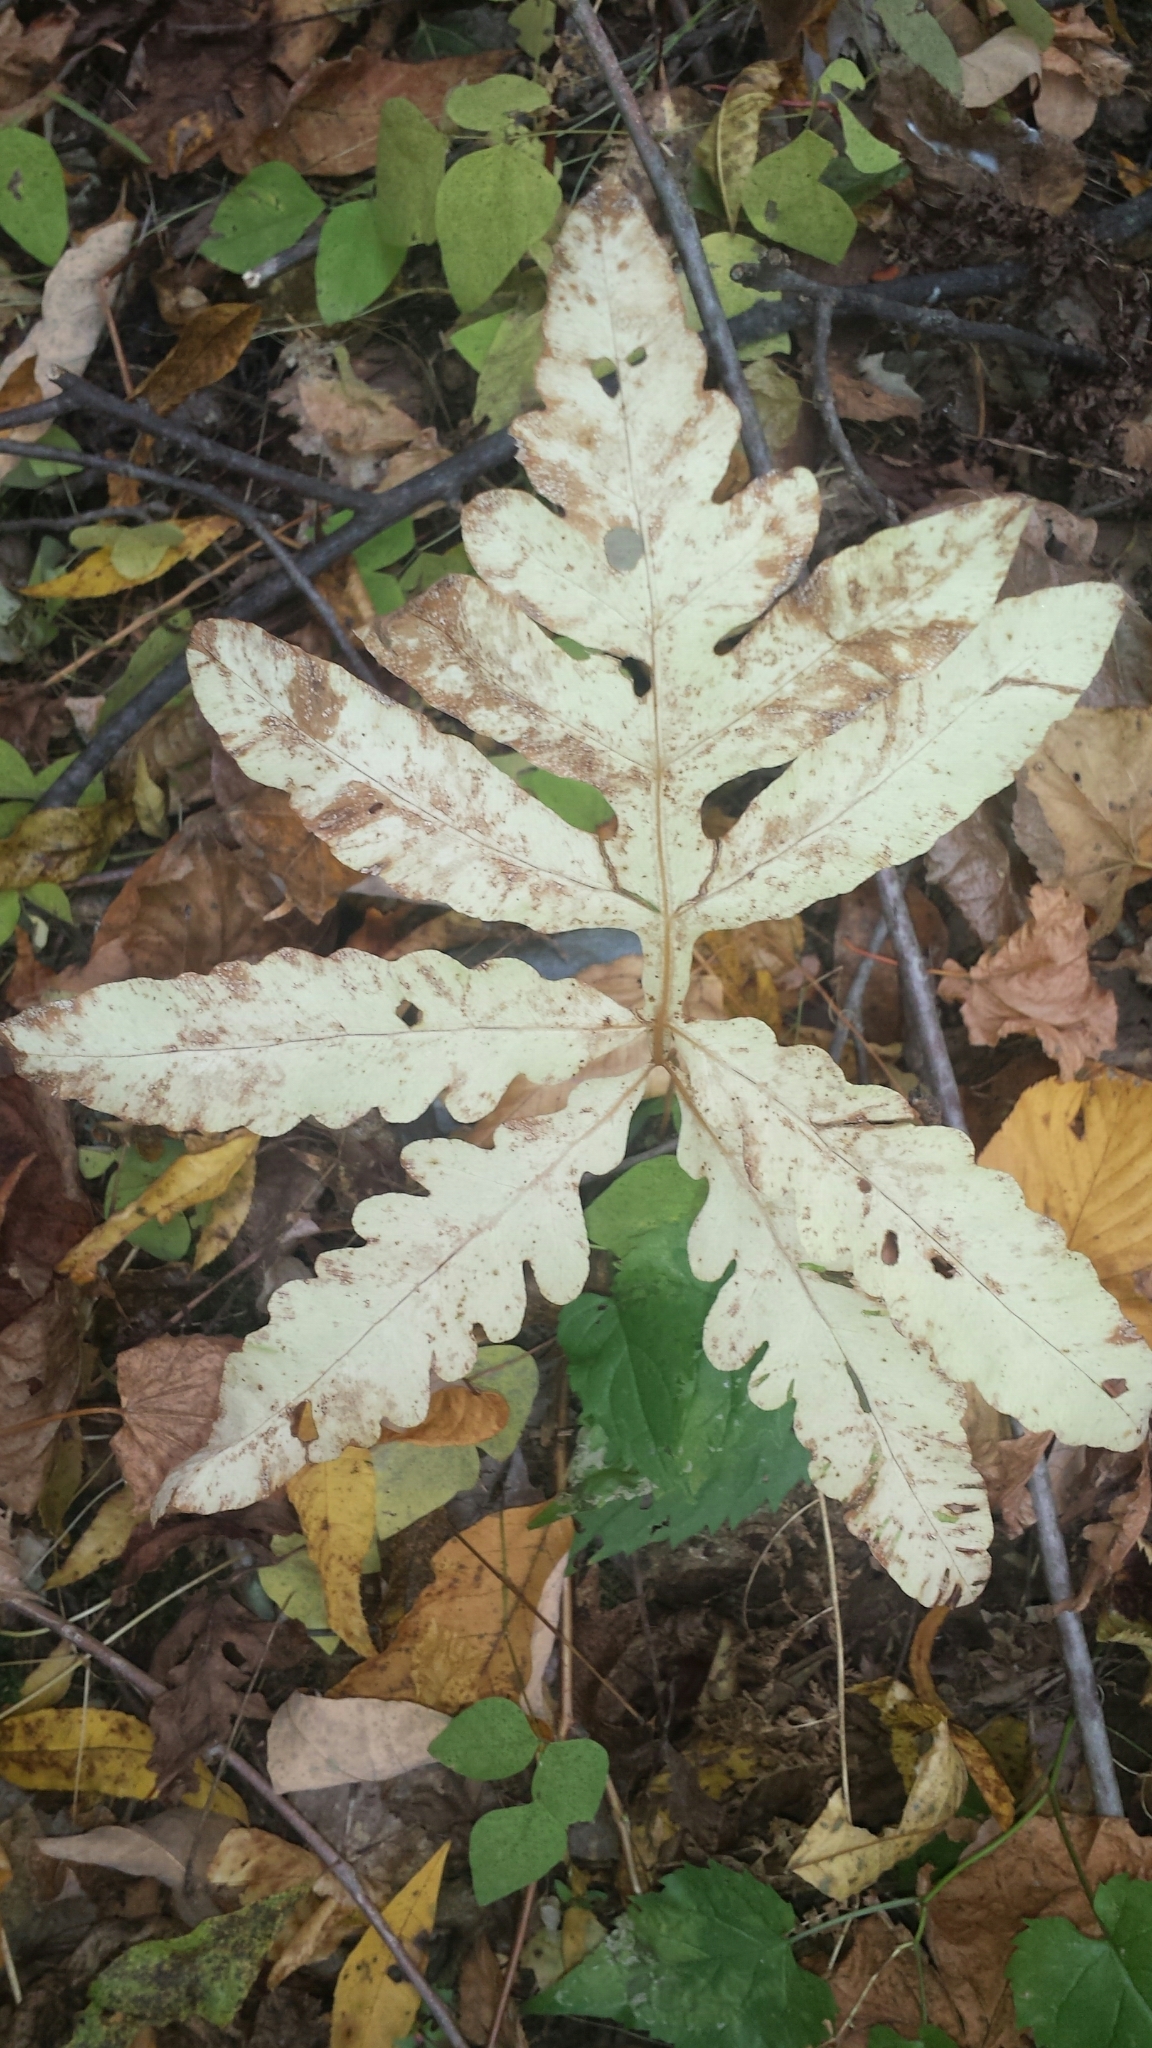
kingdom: Plantae
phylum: Tracheophyta
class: Polypodiopsida
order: Polypodiales
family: Onocleaceae
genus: Onoclea
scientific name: Onoclea sensibilis
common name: Sensitive fern
